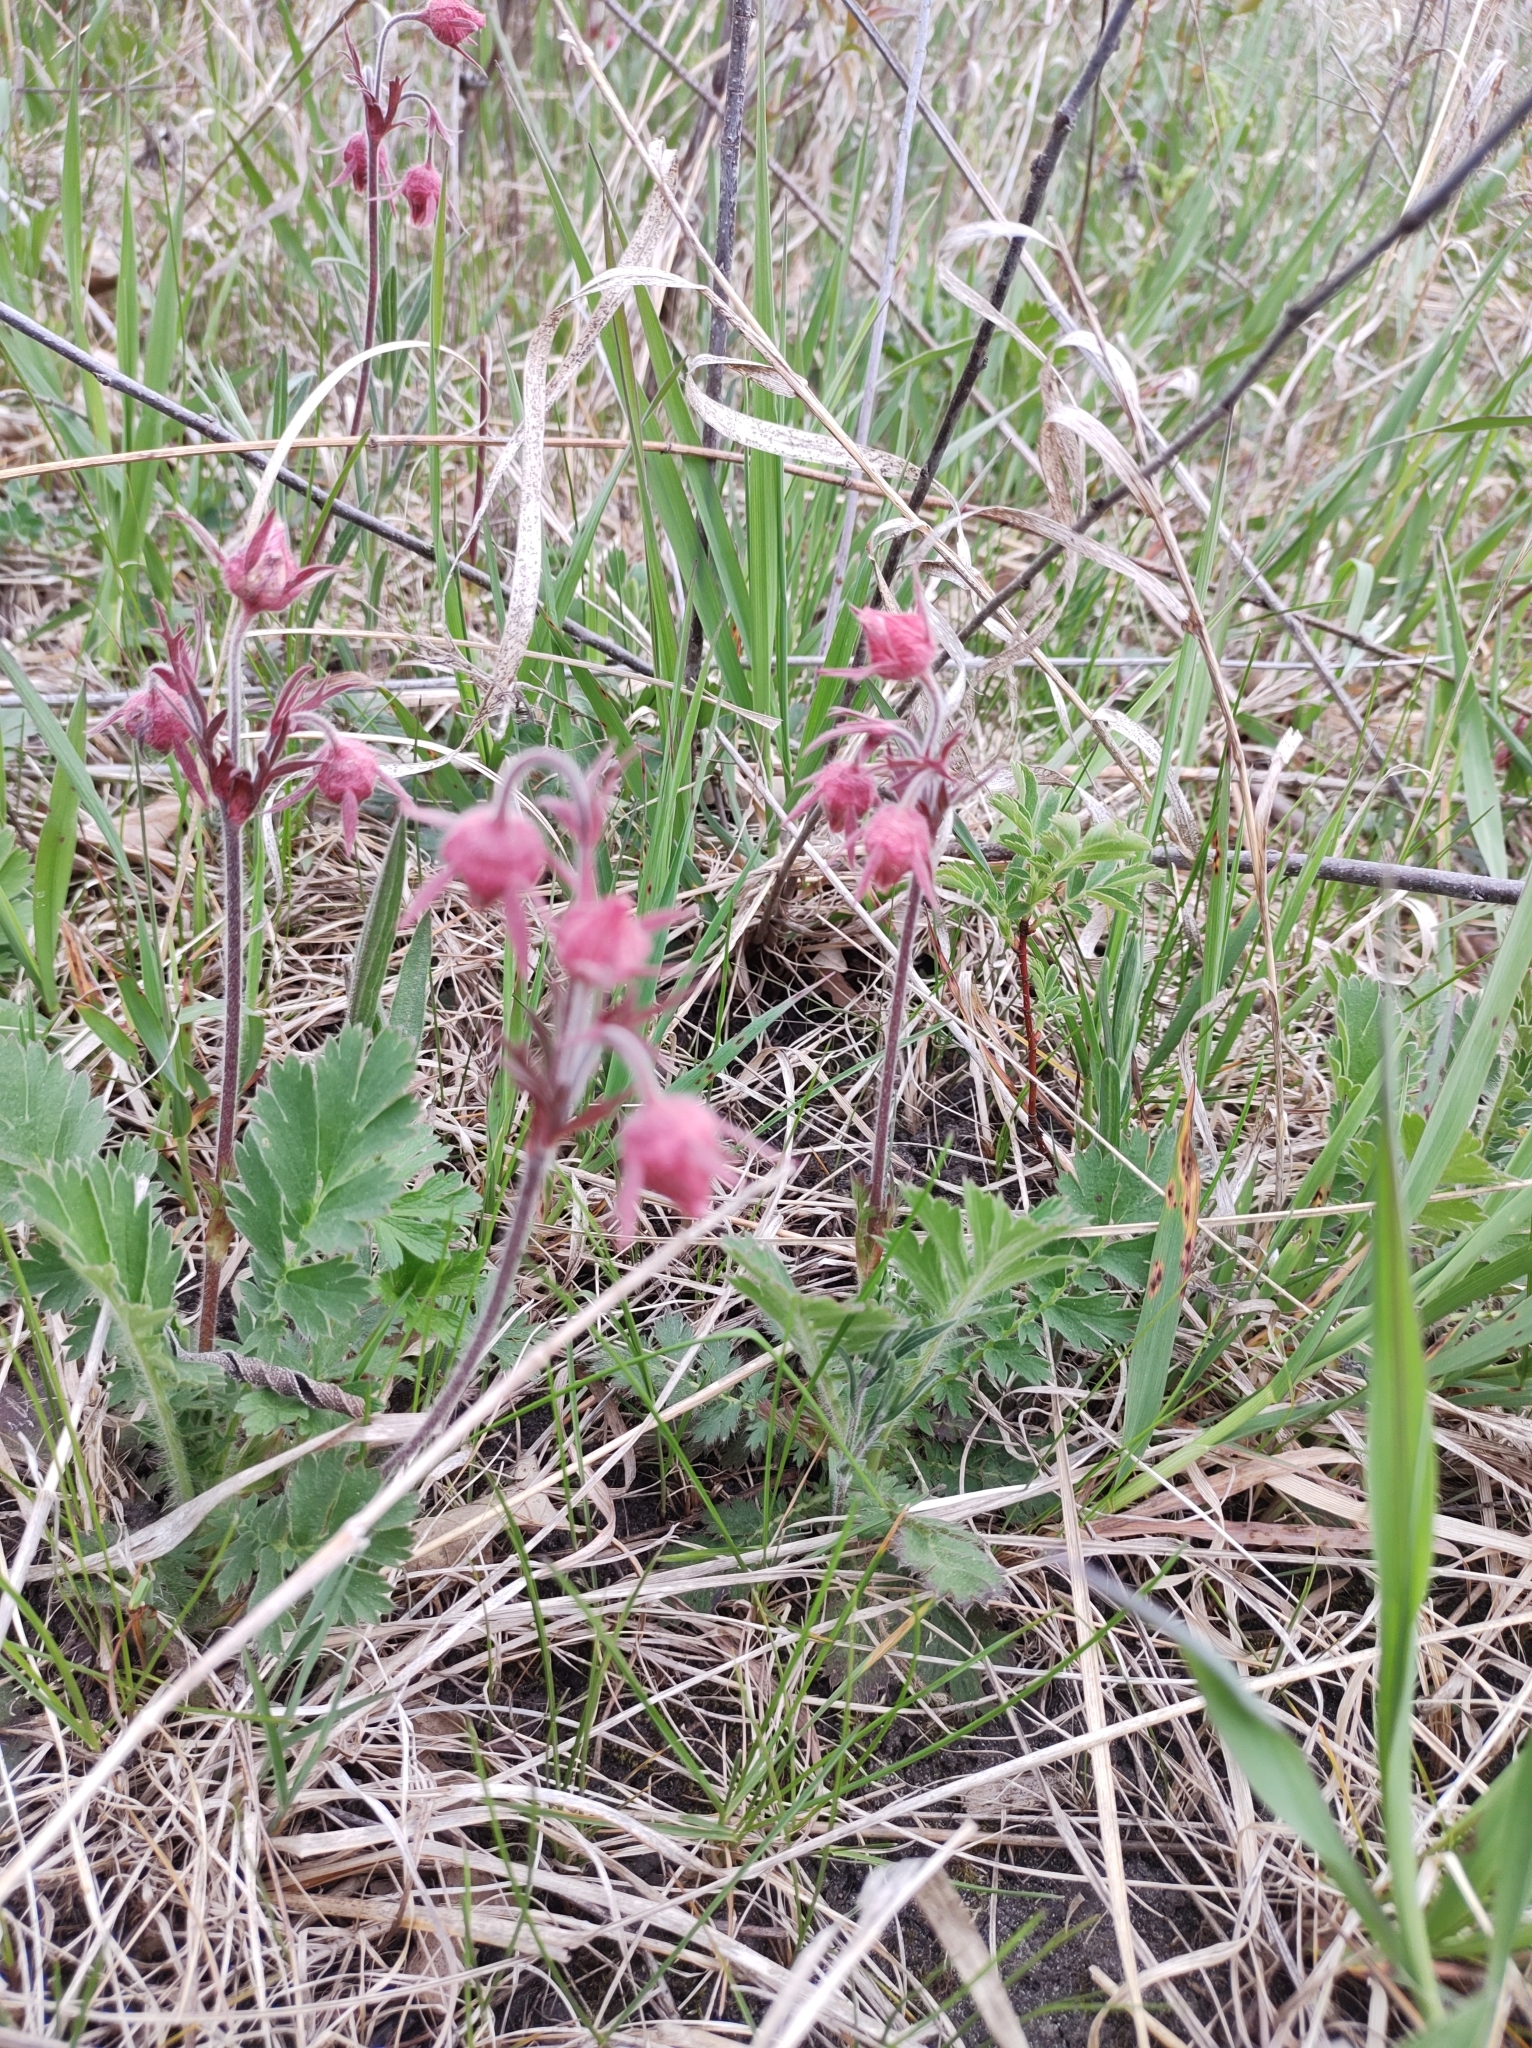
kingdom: Plantae
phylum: Tracheophyta
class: Magnoliopsida
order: Rosales
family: Rosaceae
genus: Geum
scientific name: Geum triflorum
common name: Old man's whiskers
